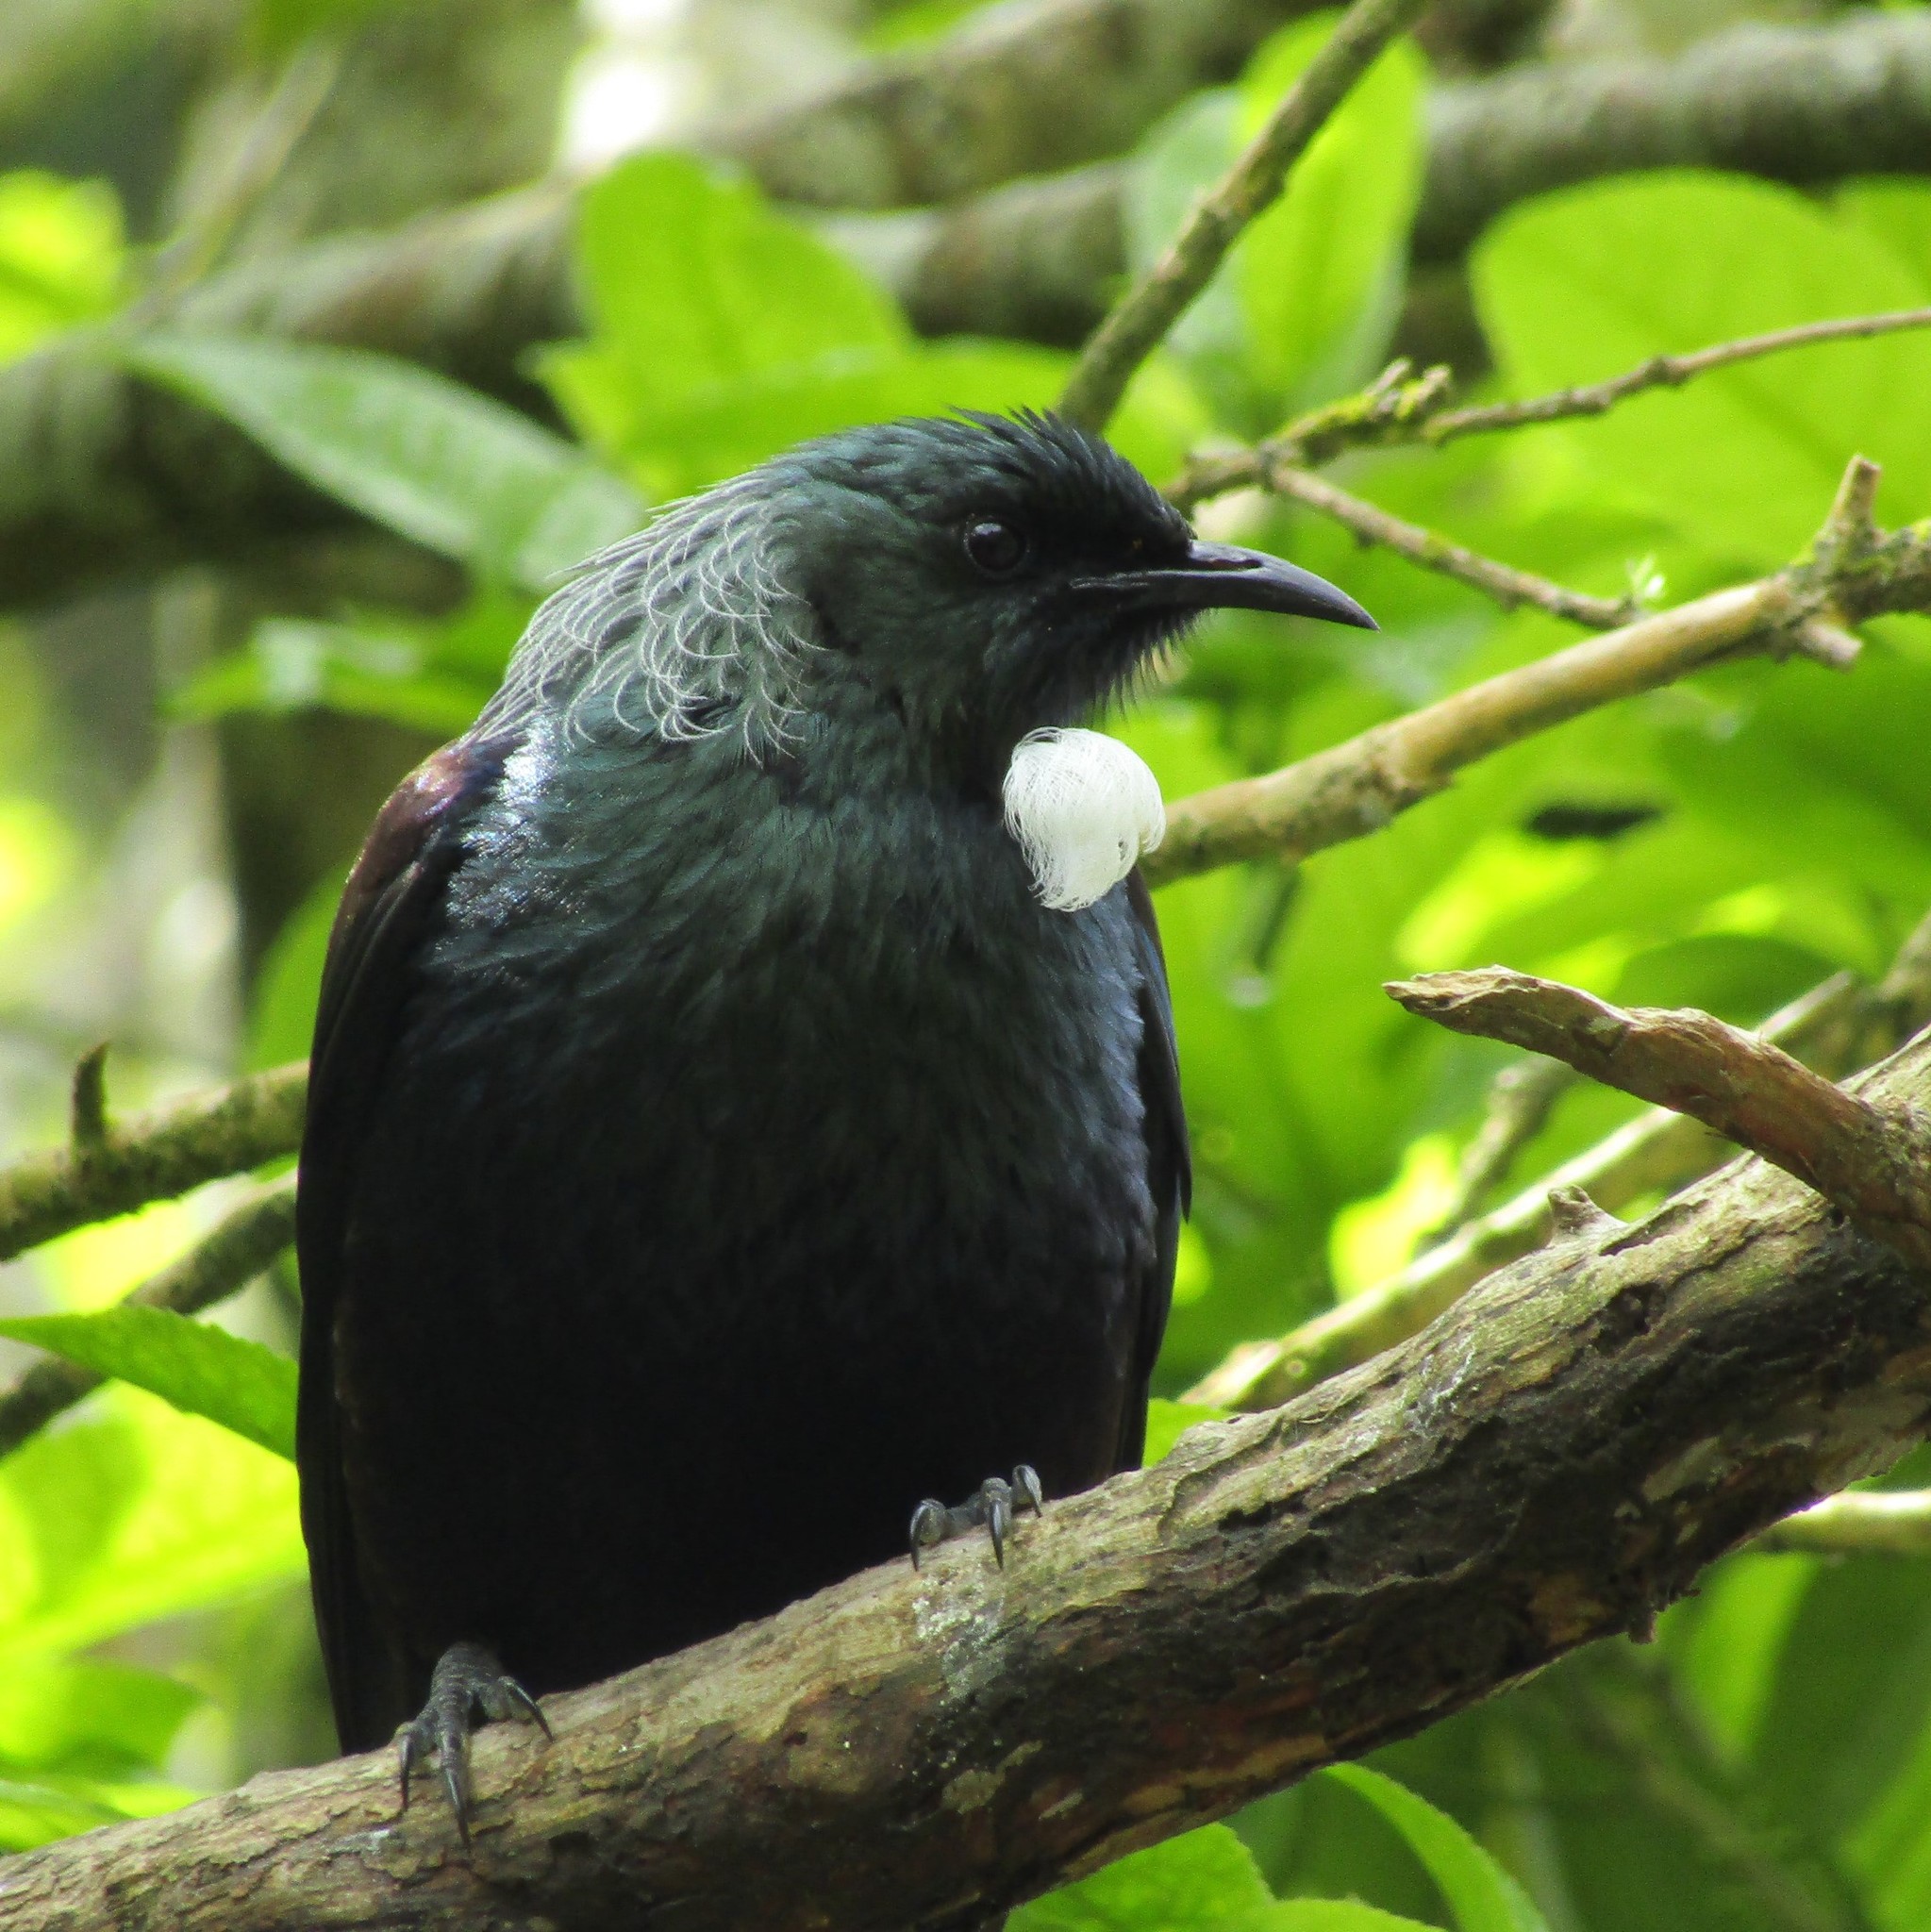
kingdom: Animalia
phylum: Chordata
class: Aves
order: Passeriformes
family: Meliphagidae
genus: Prosthemadera
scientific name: Prosthemadera novaeseelandiae
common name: Tui
